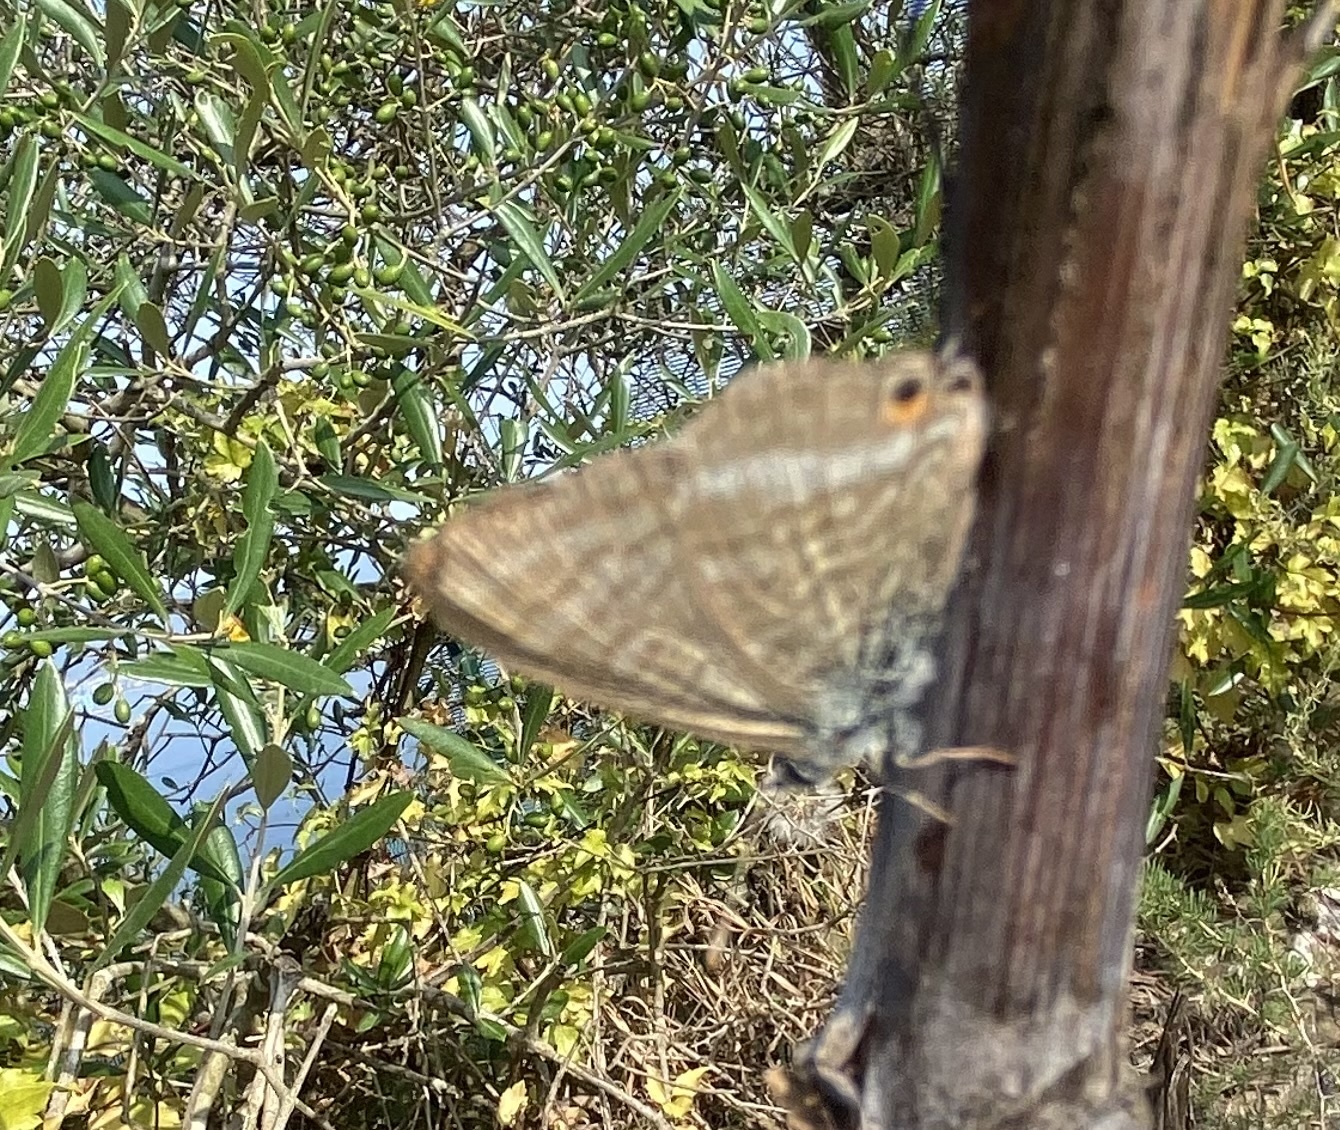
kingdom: Animalia
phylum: Arthropoda
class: Insecta
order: Lepidoptera
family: Lycaenidae
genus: Lampides
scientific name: Lampides boeticus
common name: Long-tailed blue
